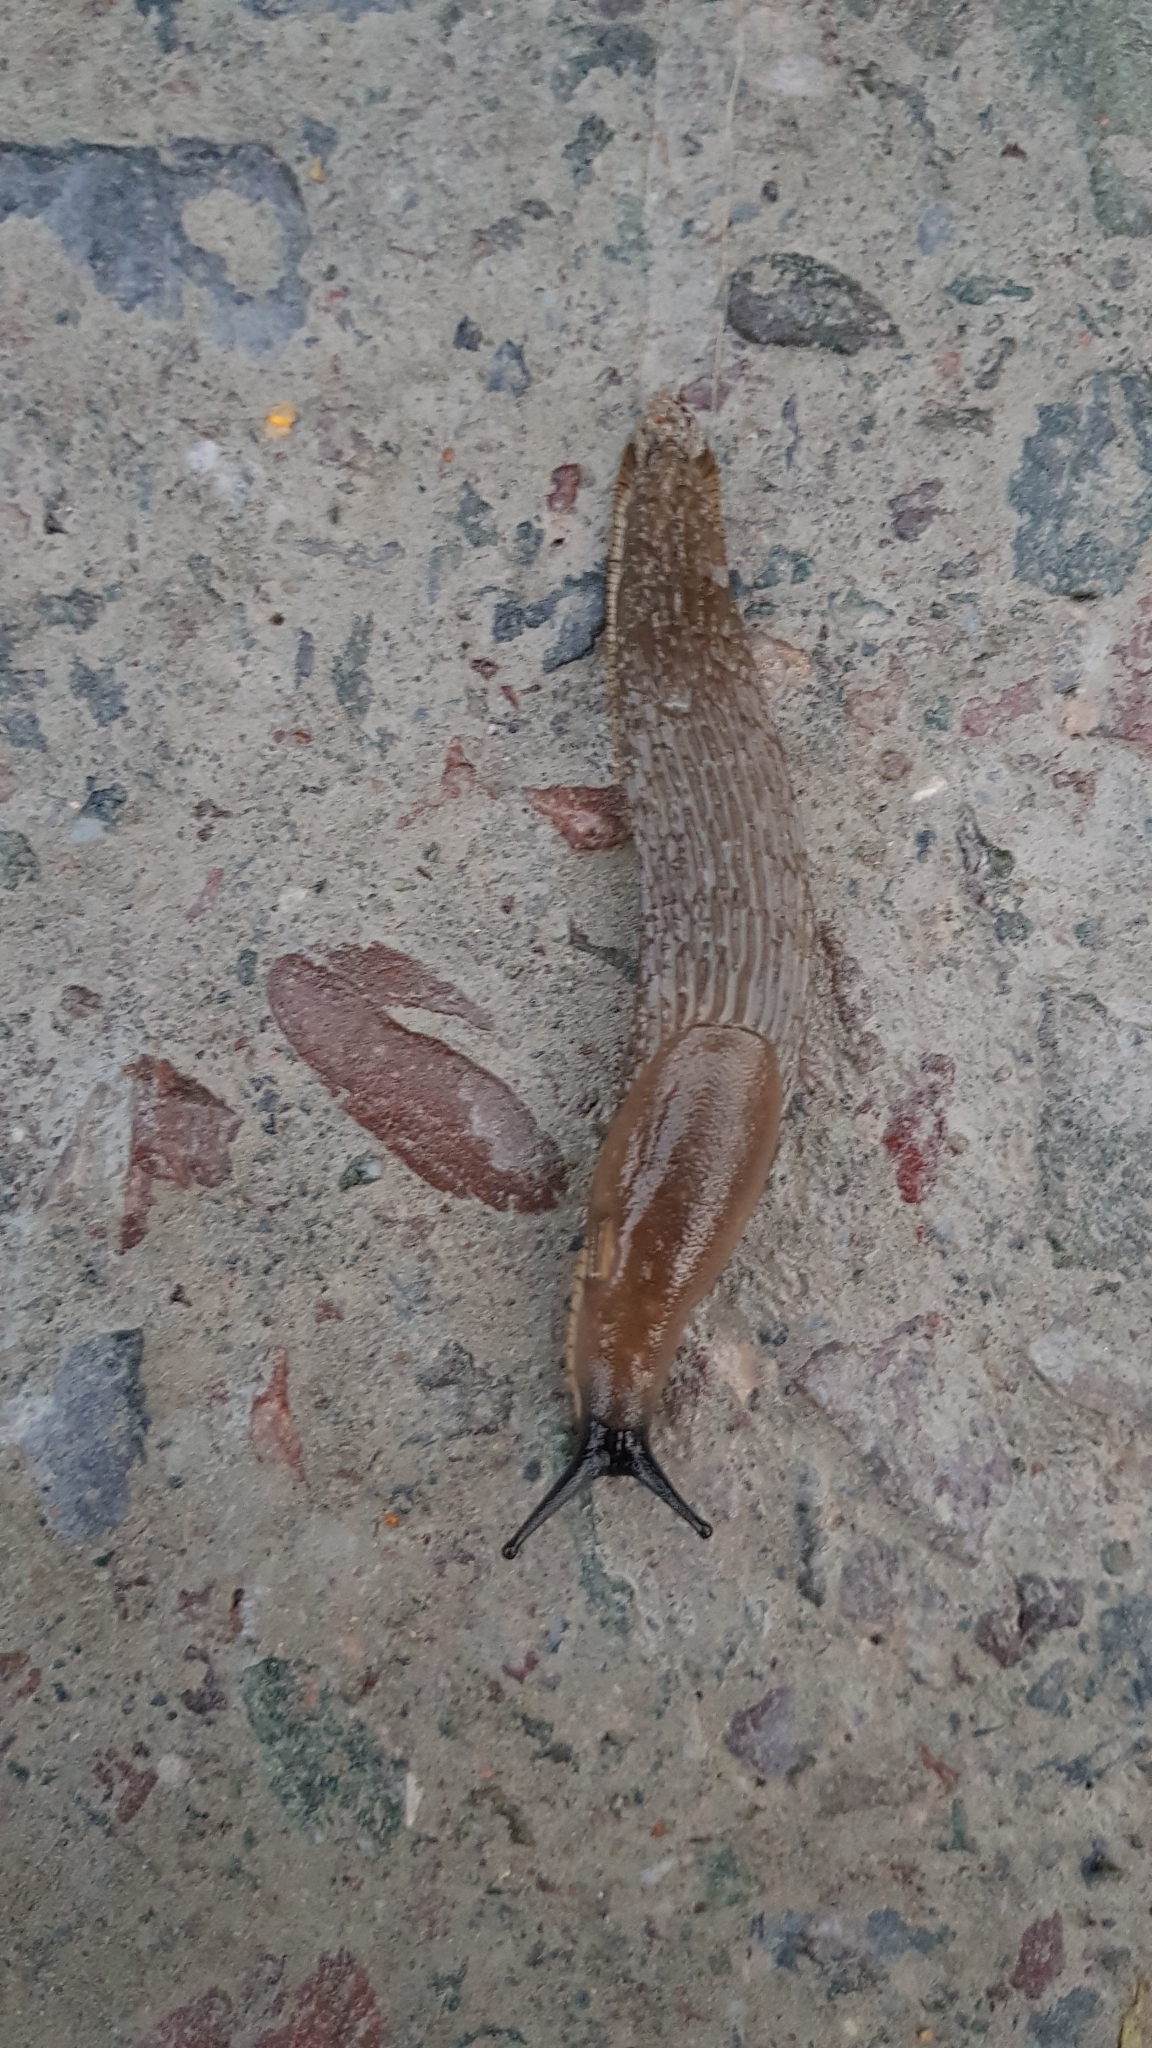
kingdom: Animalia
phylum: Mollusca
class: Gastropoda
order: Stylommatophora
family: Arionidae
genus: Arion
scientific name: Arion rufus
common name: Chocolate arion
